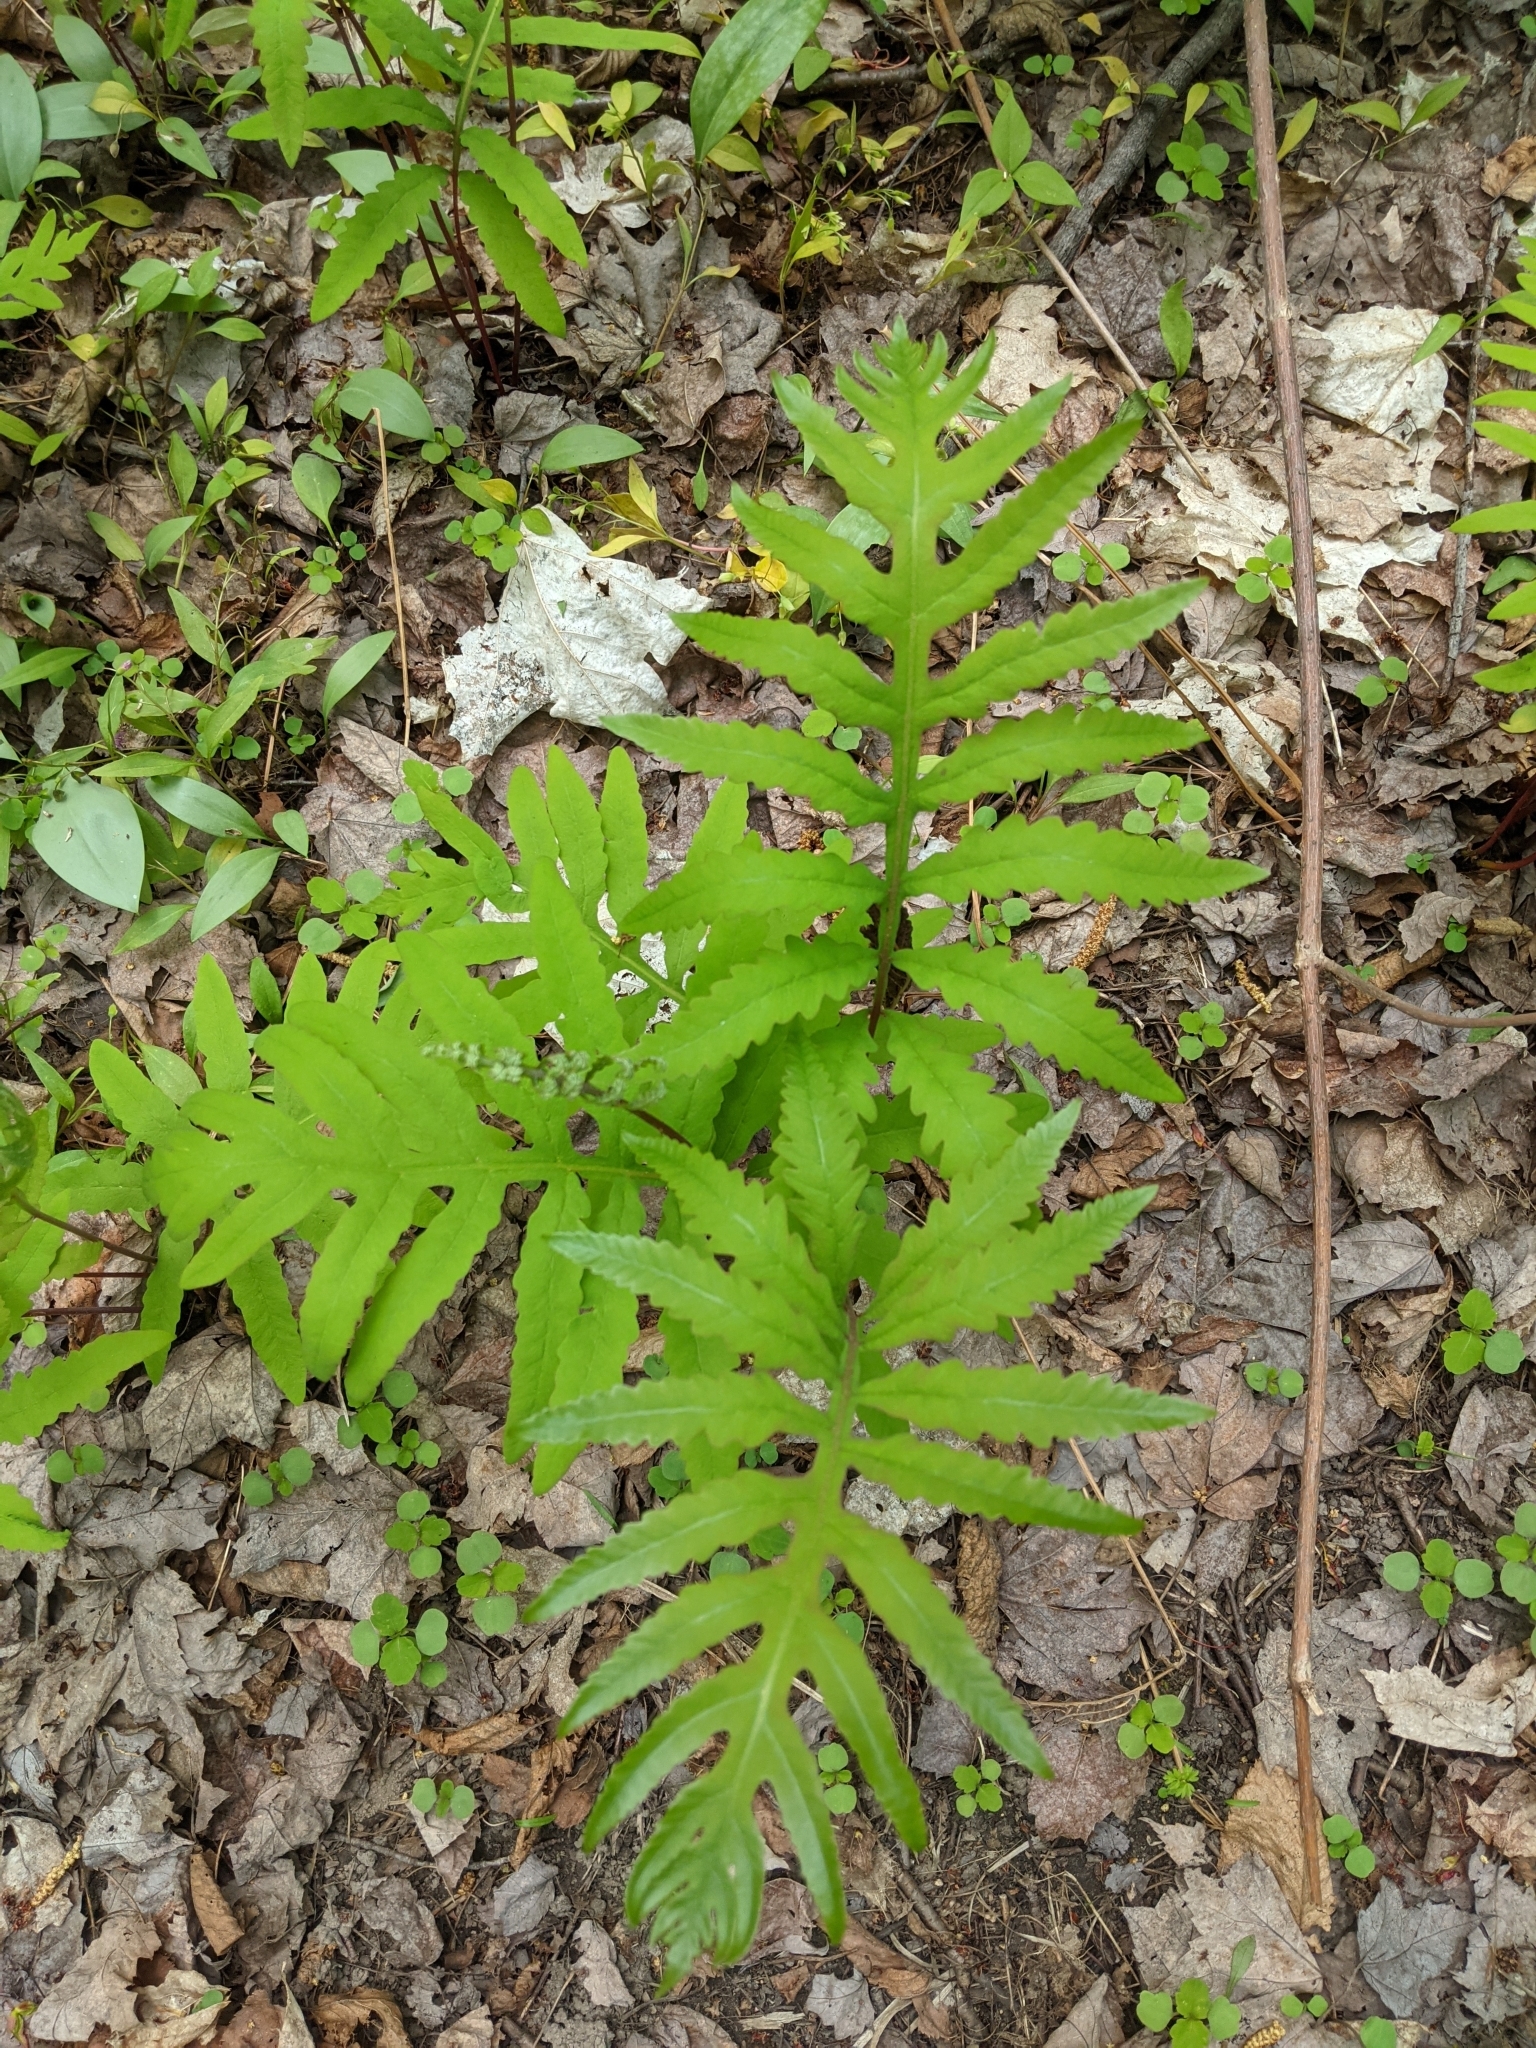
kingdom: Plantae
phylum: Tracheophyta
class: Polypodiopsida
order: Polypodiales
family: Onocleaceae
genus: Onoclea
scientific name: Onoclea sensibilis
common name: Sensitive fern
